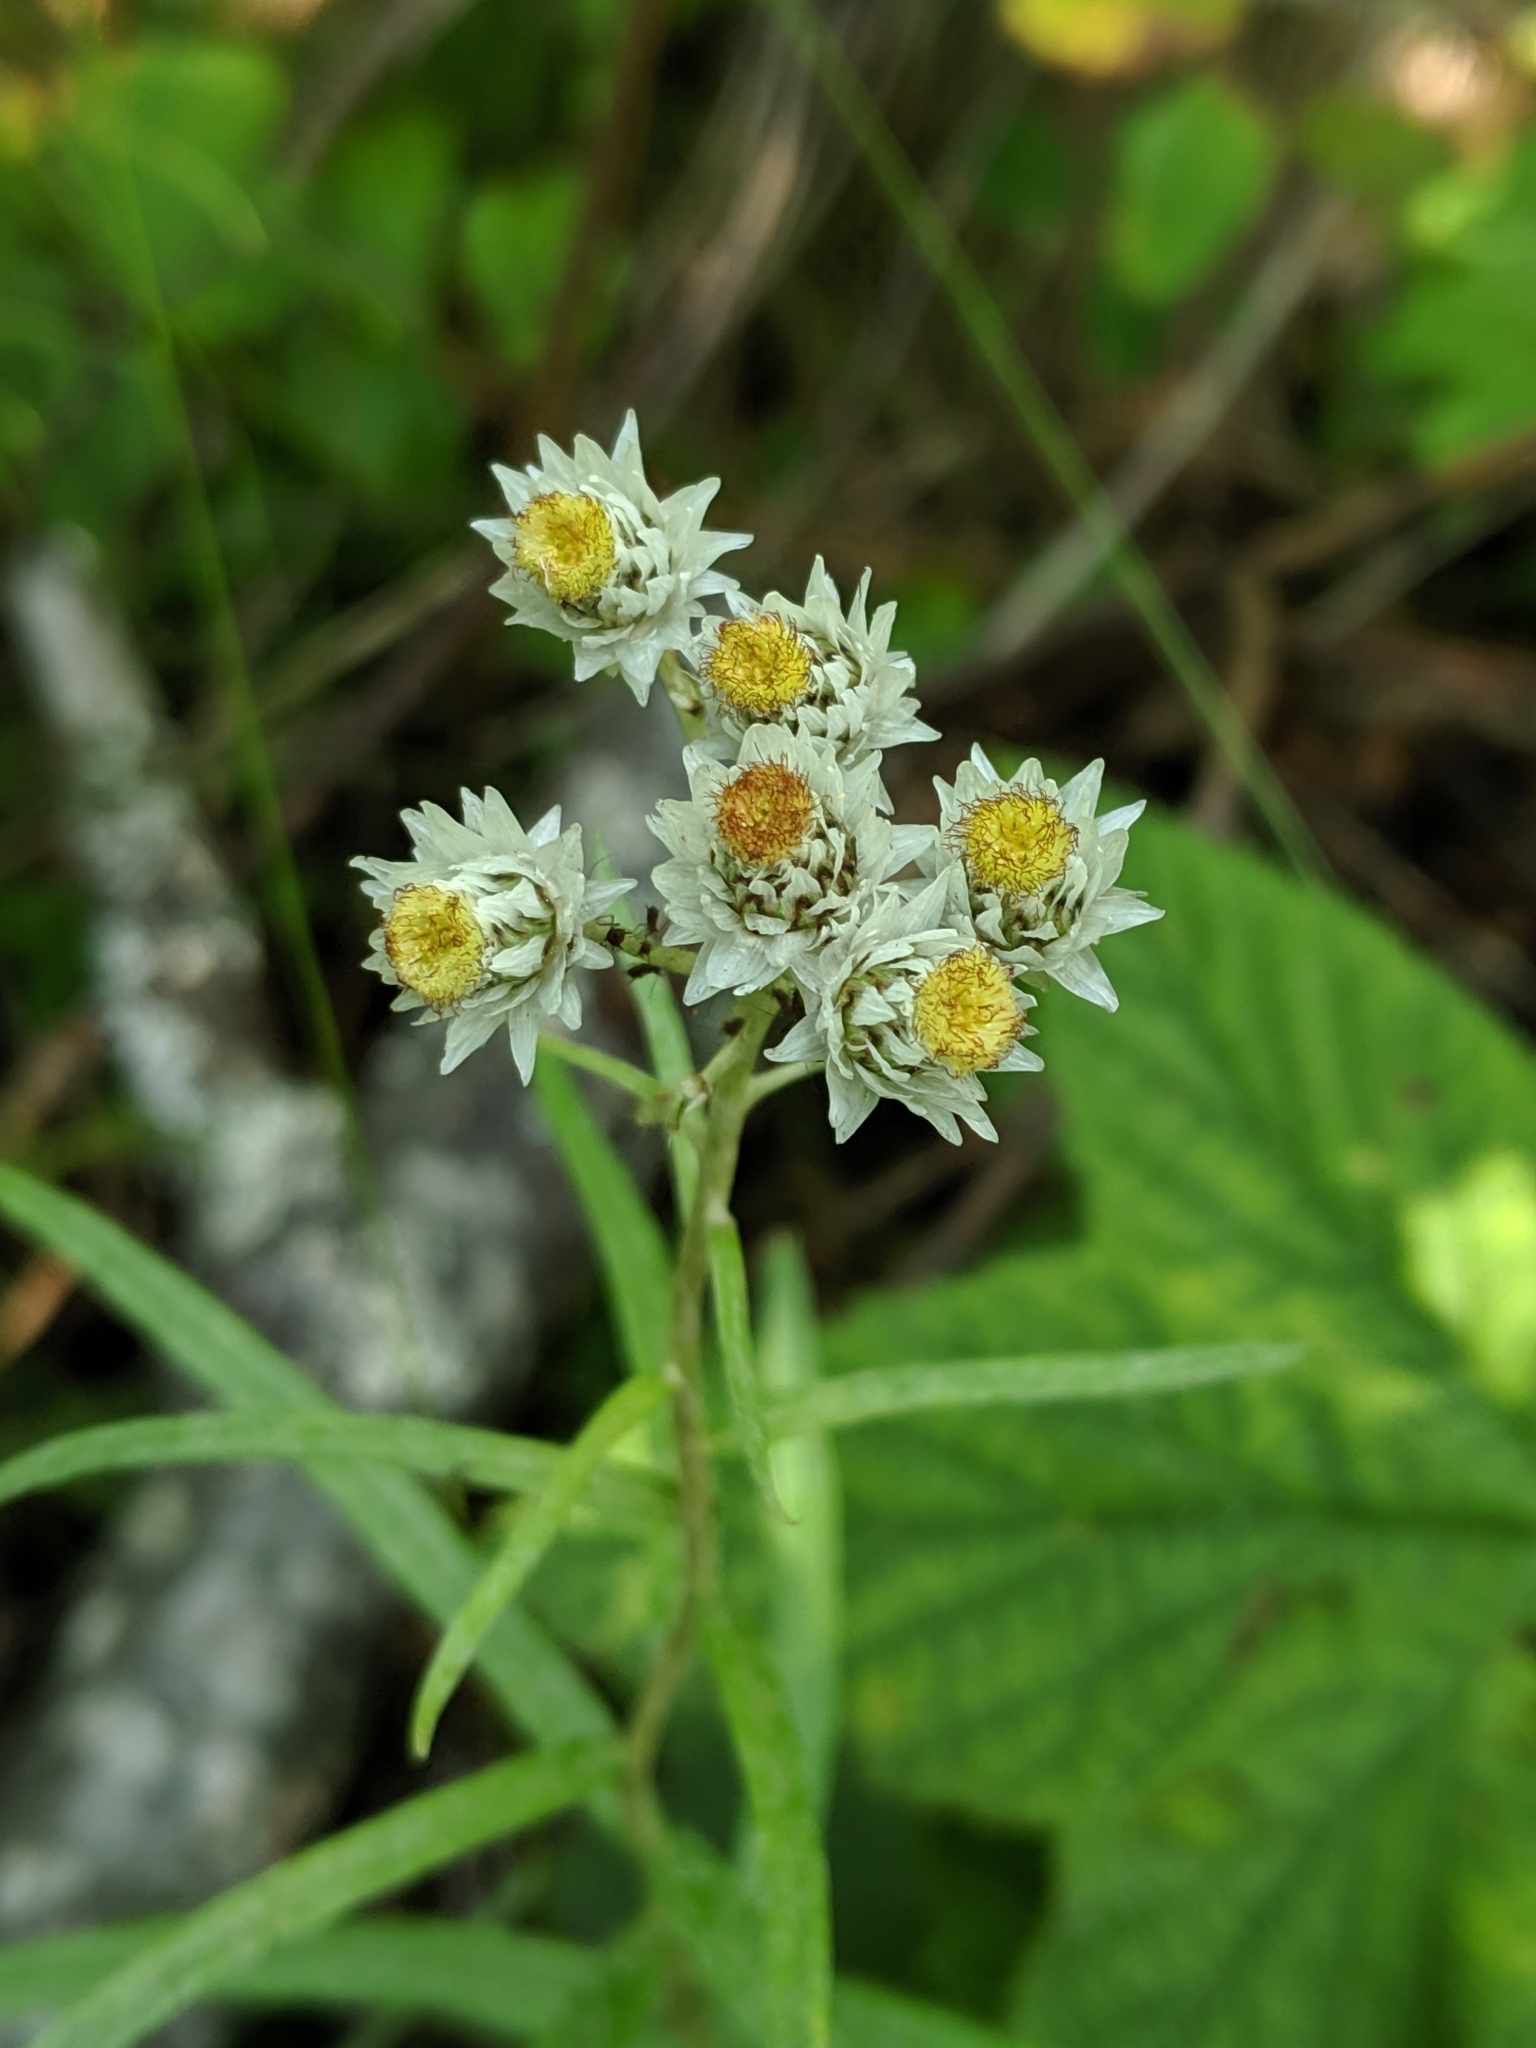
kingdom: Plantae
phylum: Tracheophyta
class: Magnoliopsida
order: Asterales
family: Asteraceae
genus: Anaphalis
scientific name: Anaphalis margaritacea
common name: Pearly everlasting
